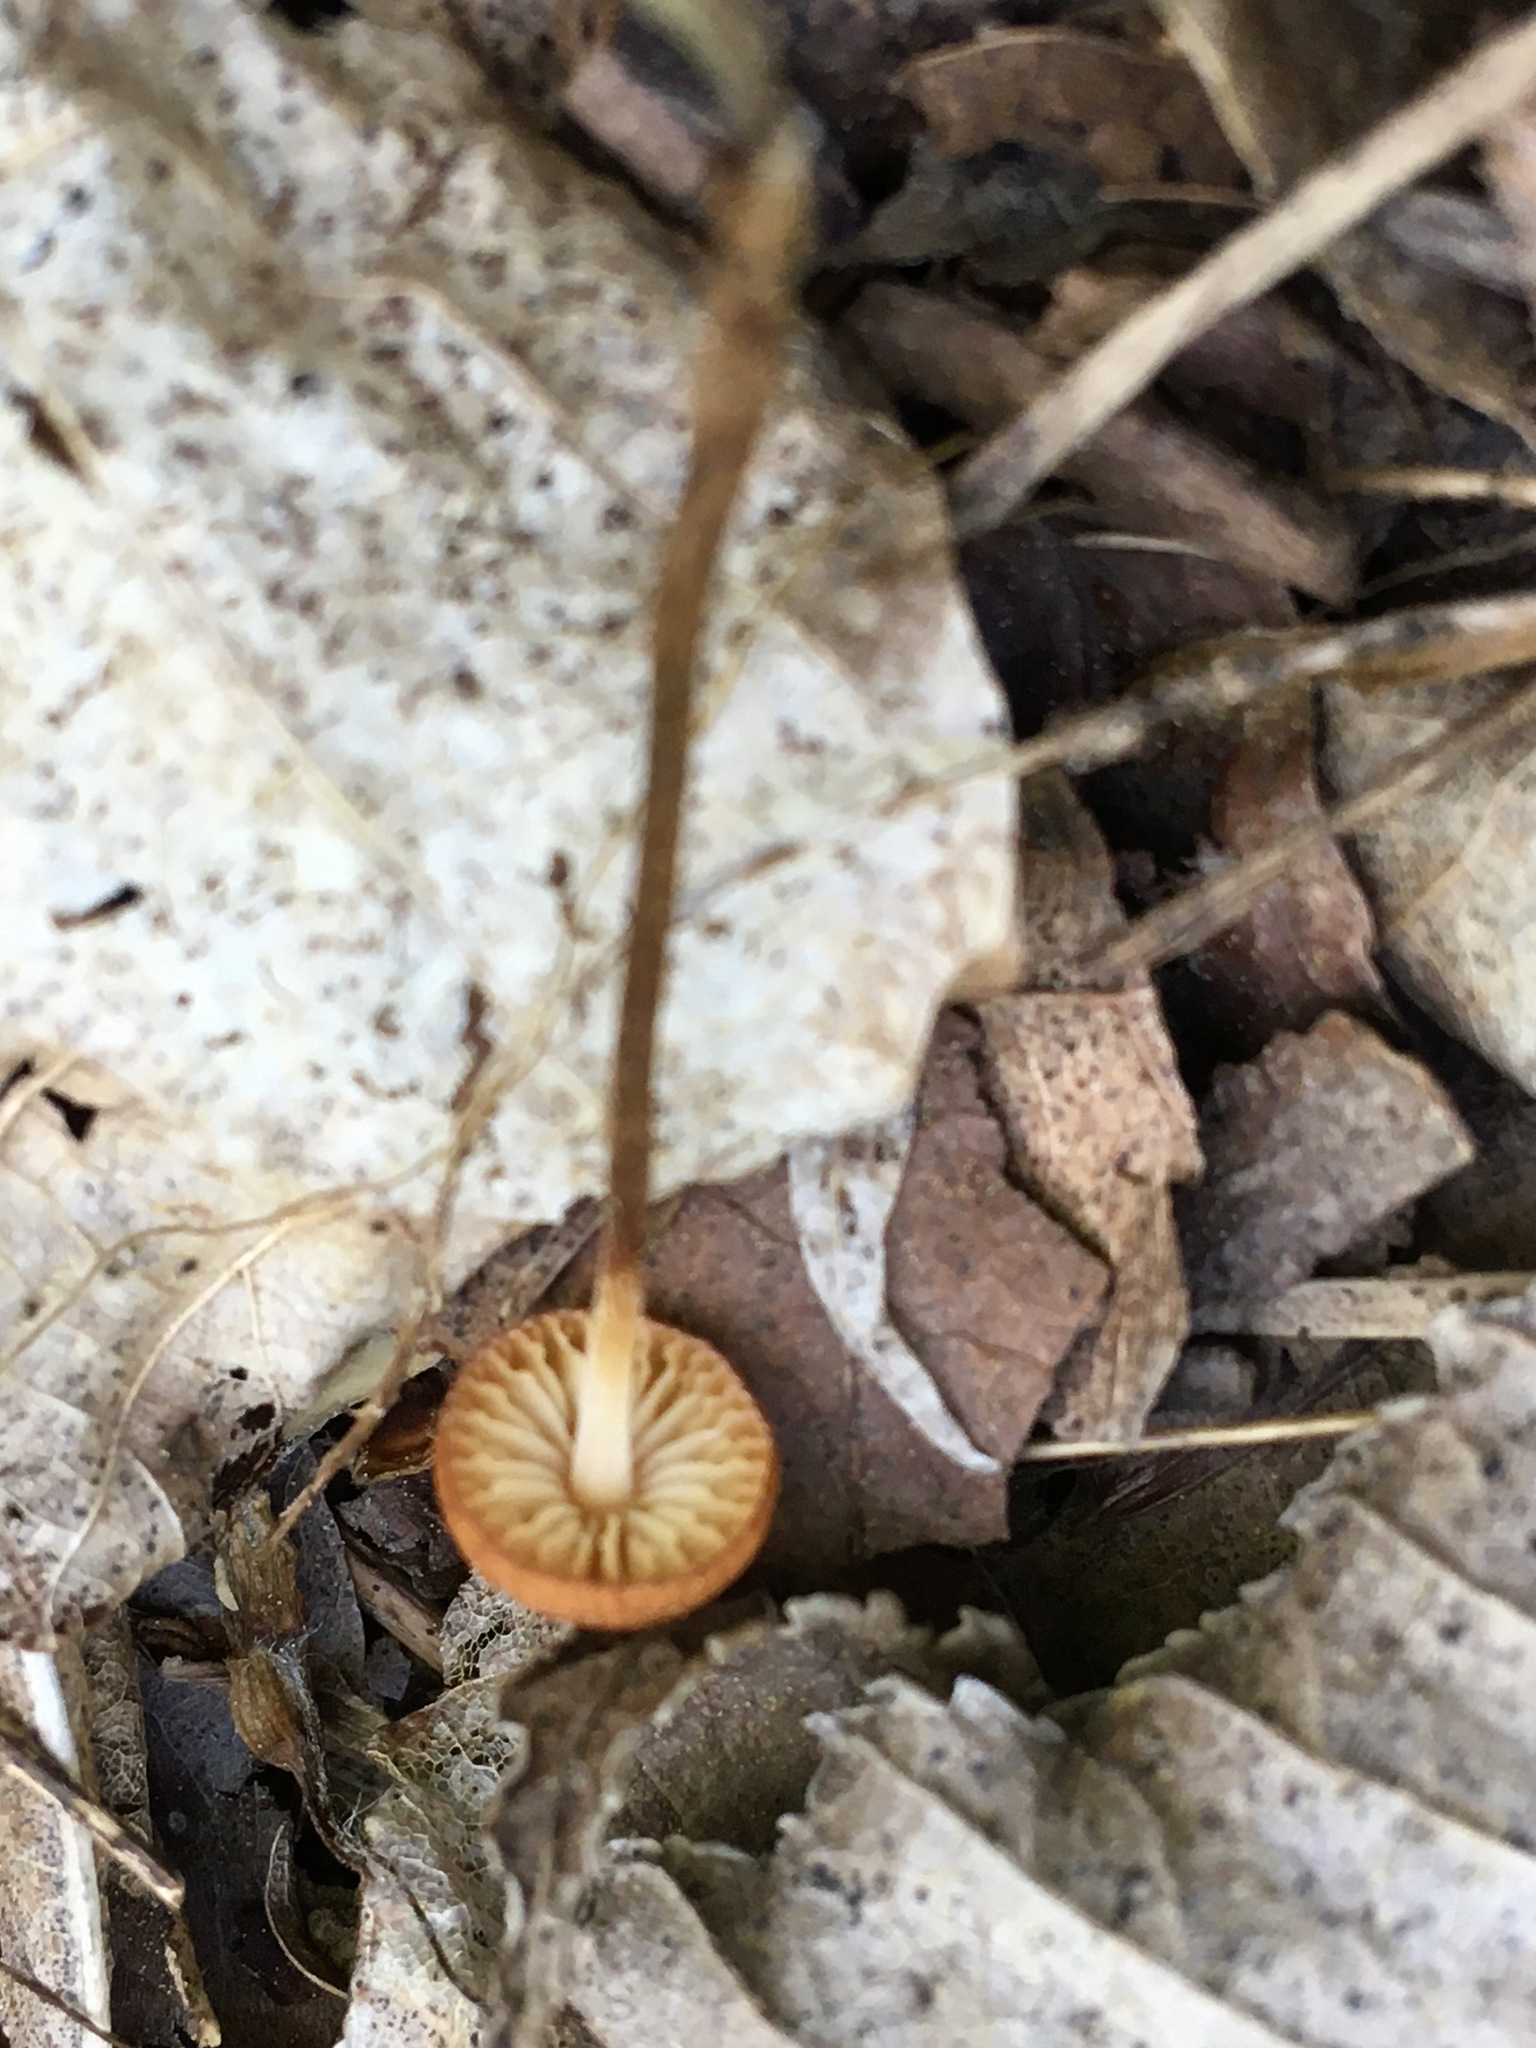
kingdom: Fungi
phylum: Basidiomycota
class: Agaricomycetes
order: Agaricales
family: Physalacriaceae
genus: Rhizomarasmius
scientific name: Rhizomarasmius pyrrhocephalus
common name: Hairy long stem marasmius
